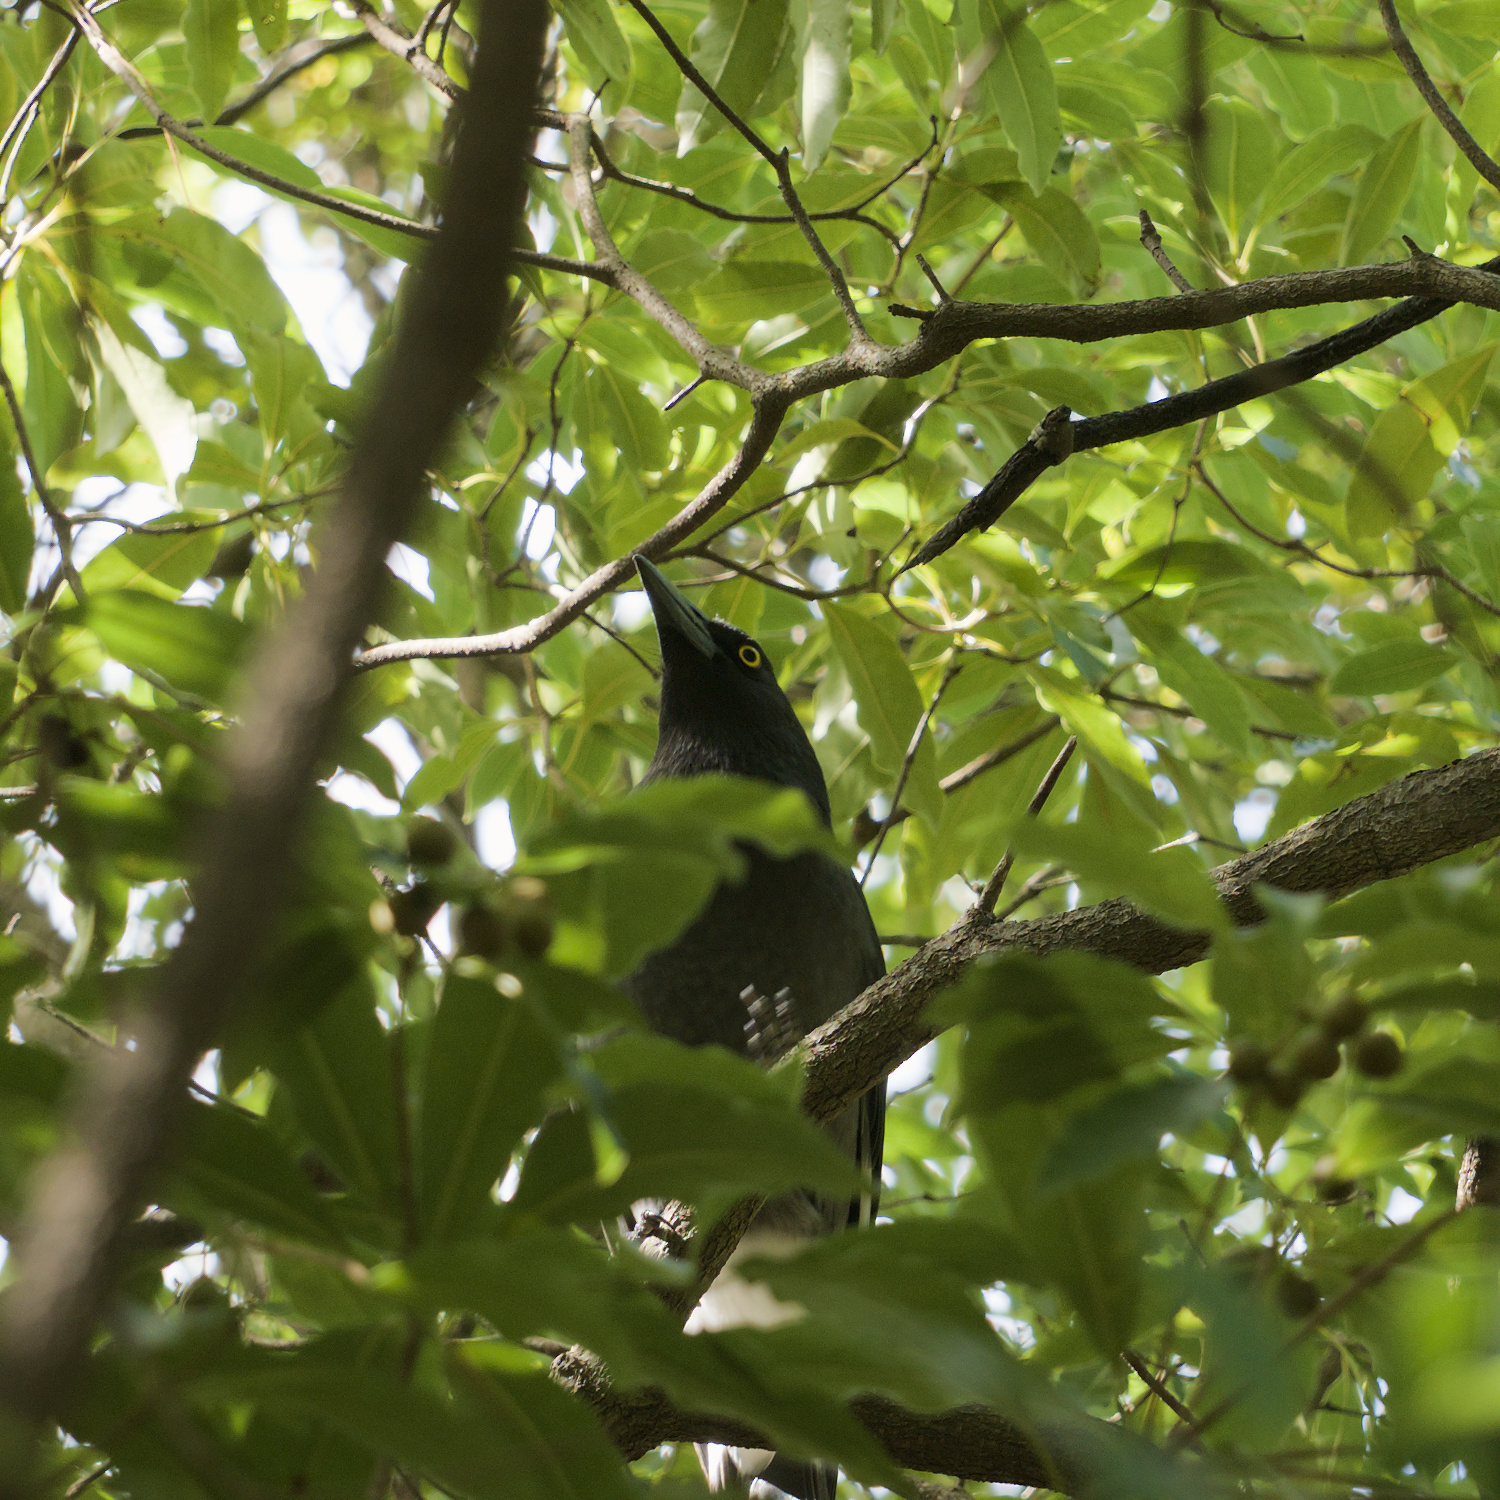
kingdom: Animalia
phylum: Chordata
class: Aves
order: Passeriformes
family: Cracticidae
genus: Strepera
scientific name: Strepera graculina
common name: Pied currawong
